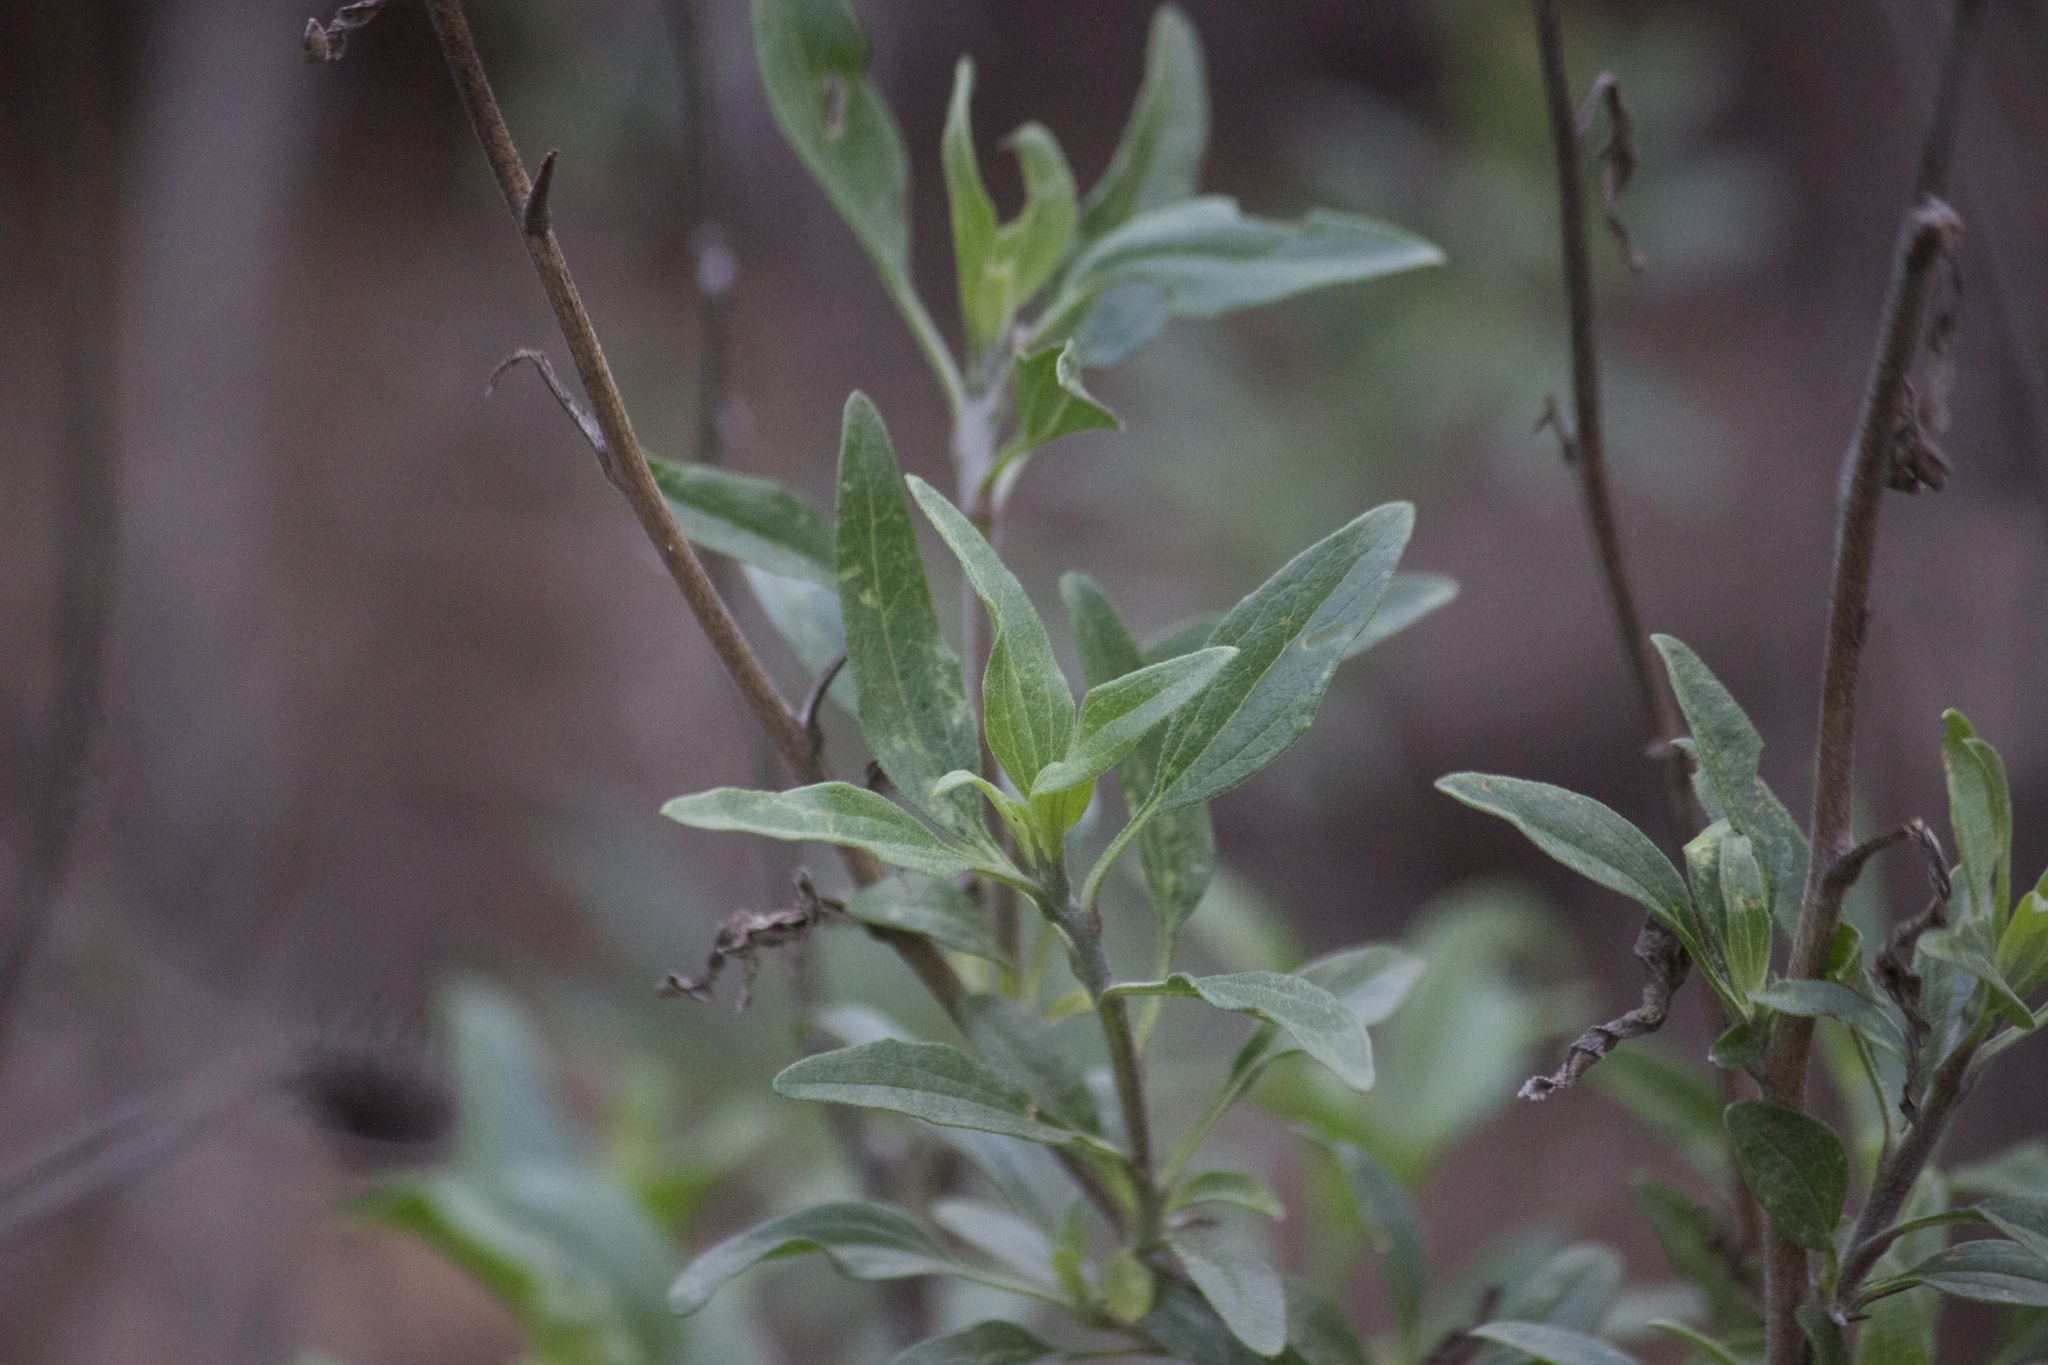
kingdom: Plantae
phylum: Tracheophyta
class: Magnoliopsida
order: Asterales
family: Asteraceae
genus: Encelia
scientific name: Encelia californica
